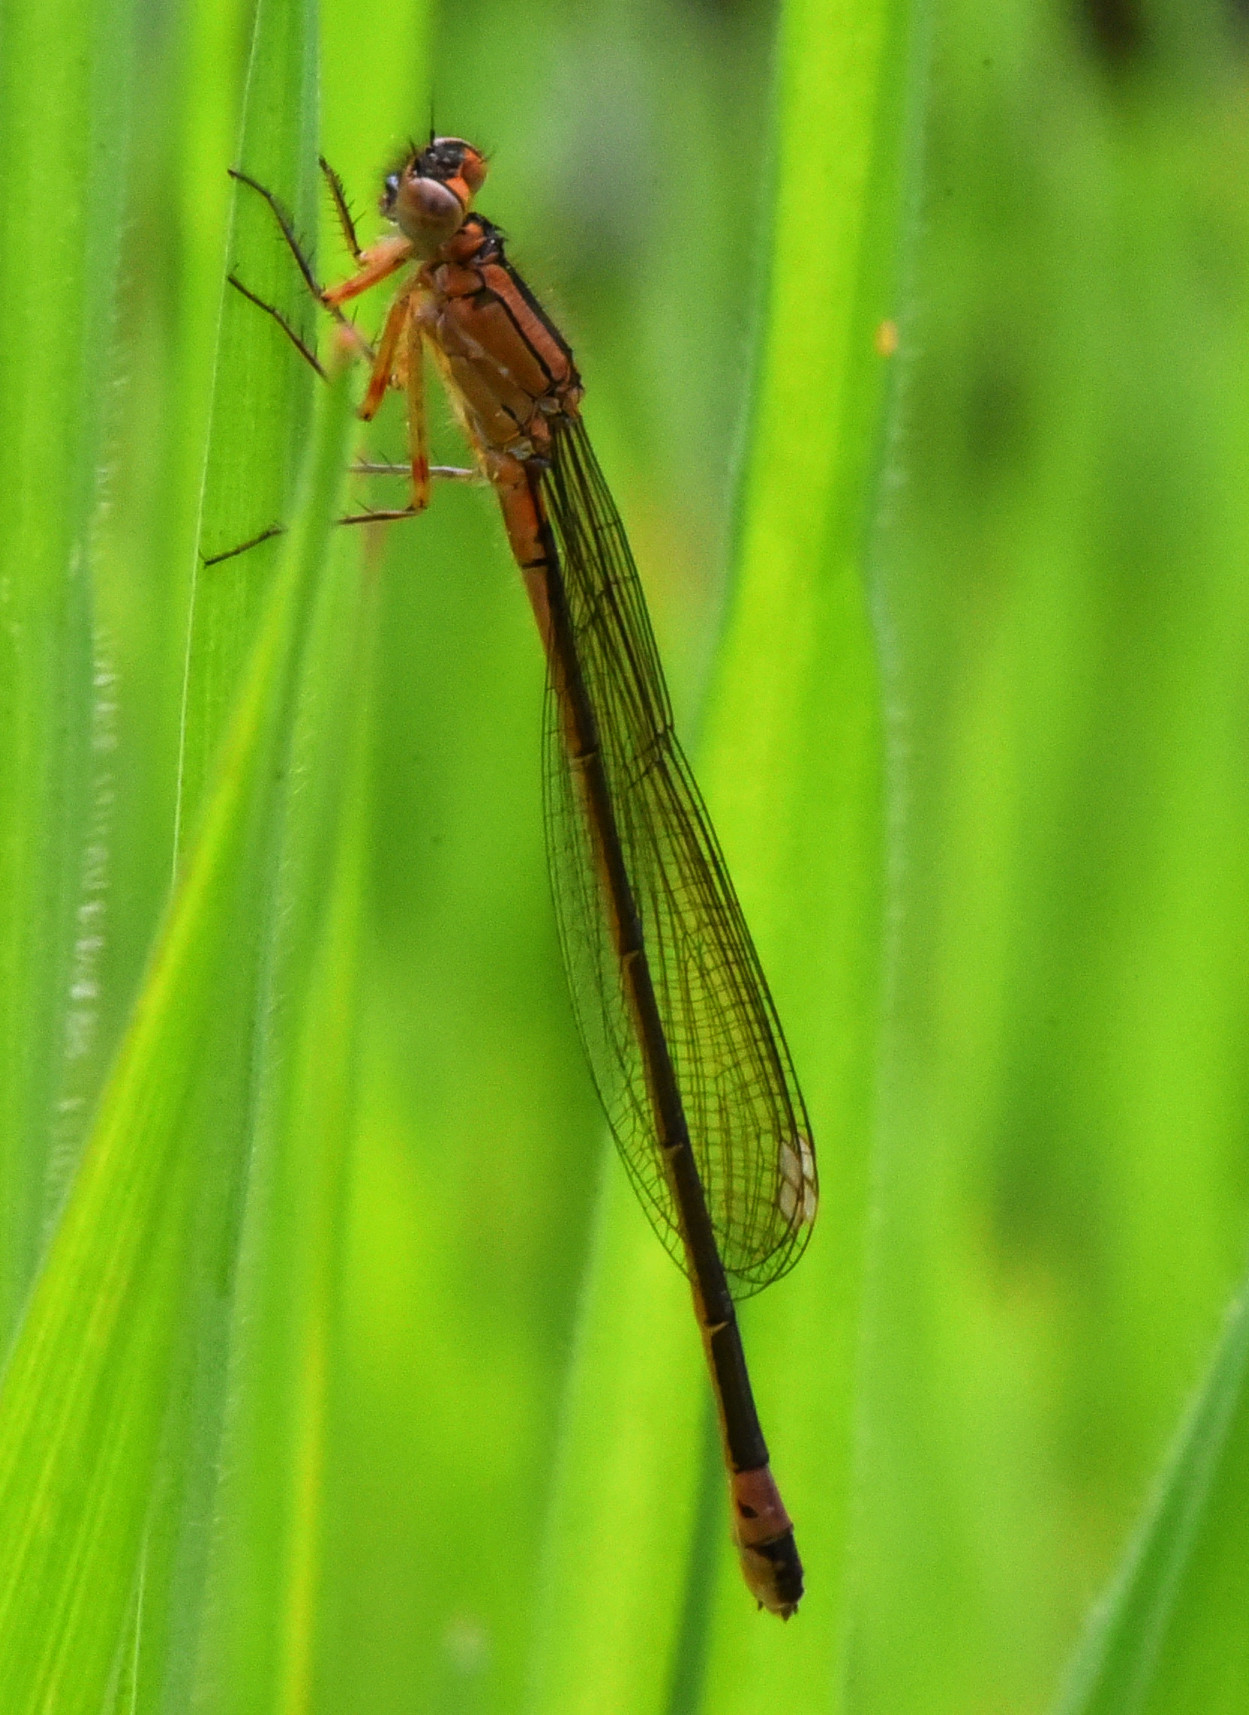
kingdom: Animalia
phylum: Arthropoda
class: Insecta
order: Odonata
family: Coenagrionidae
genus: Ischnura
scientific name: Ischnura cervula
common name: Pacific forktail
